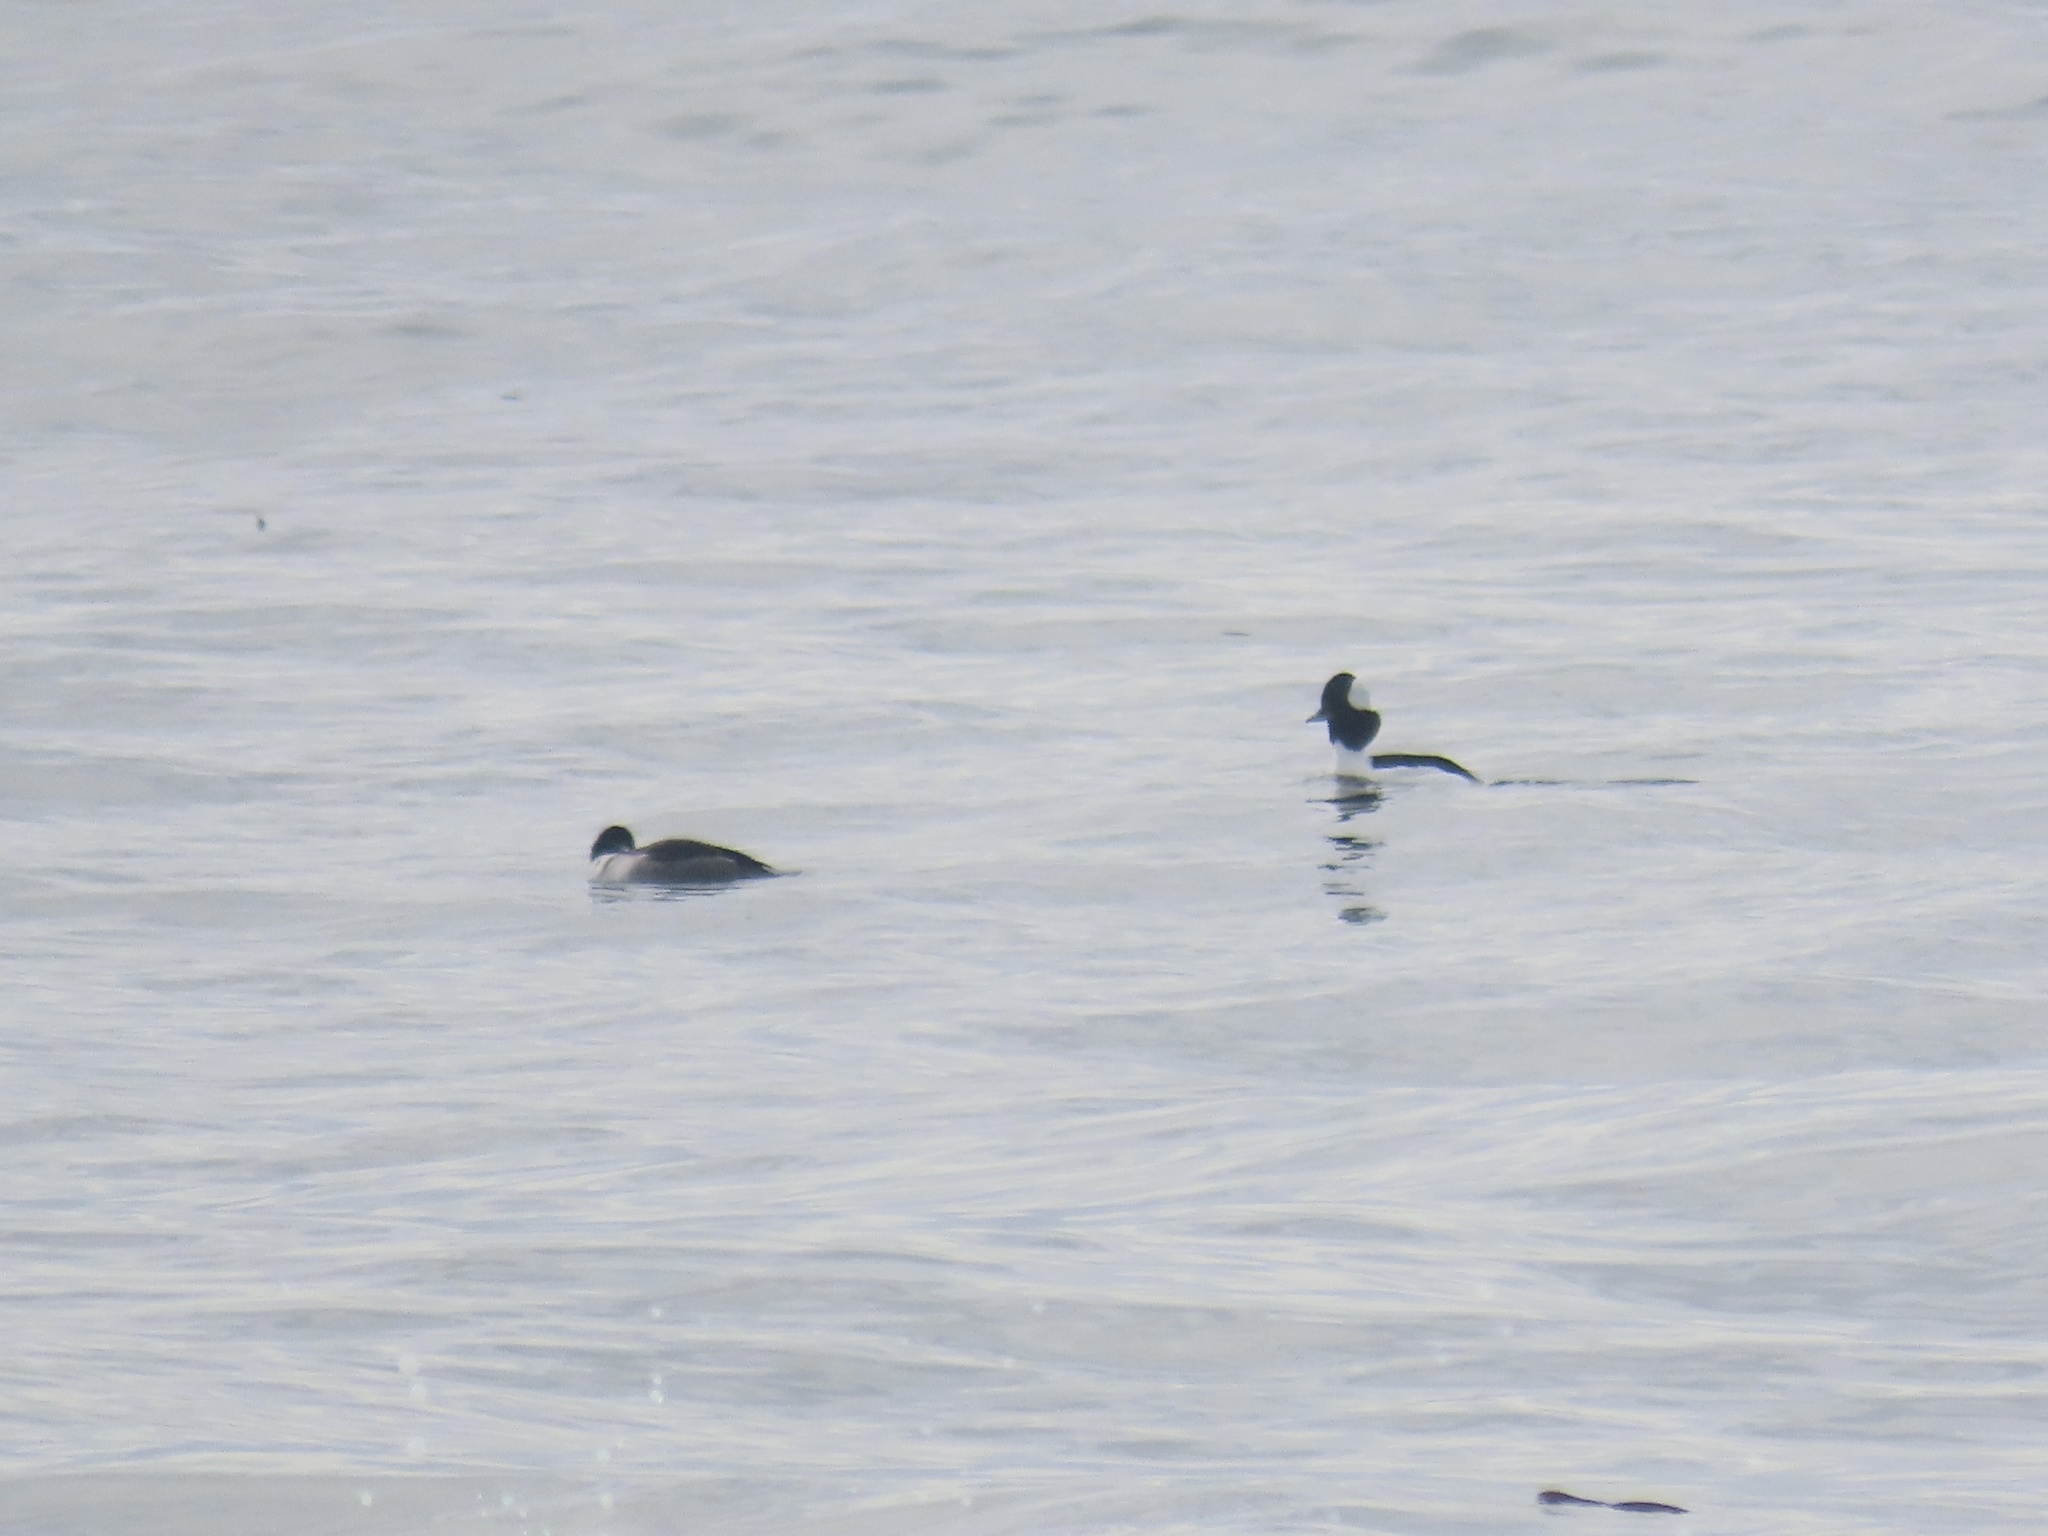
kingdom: Animalia
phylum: Chordata
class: Aves
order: Anseriformes
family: Anatidae
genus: Bucephala
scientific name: Bucephala albeola
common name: Bufflehead
